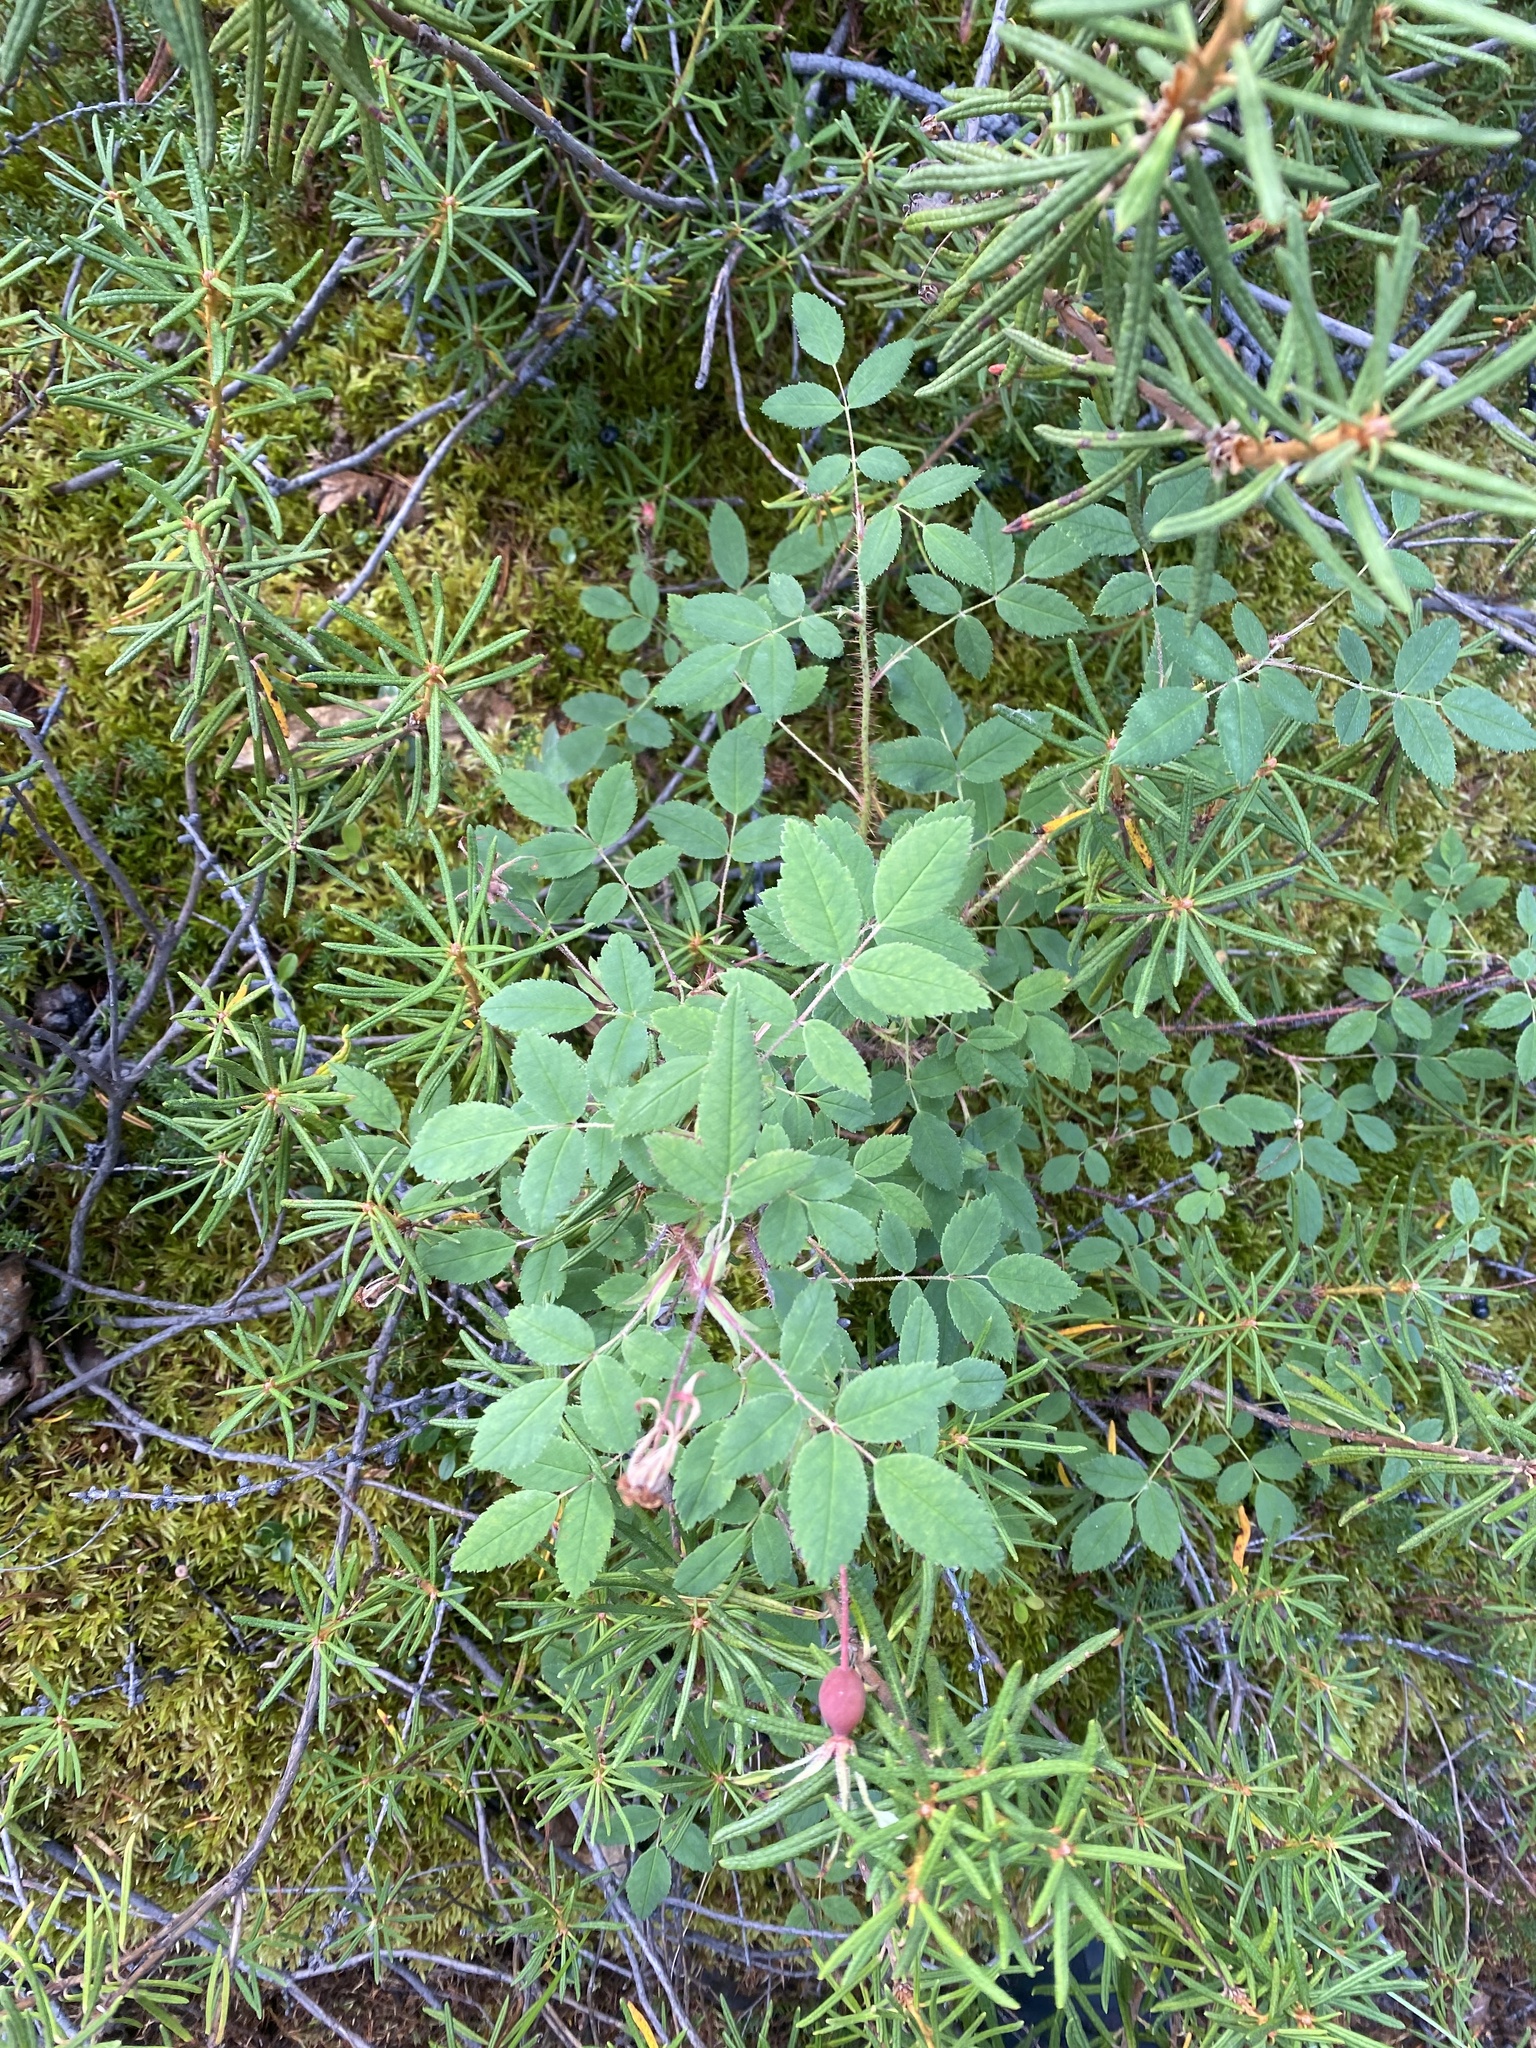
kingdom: Plantae
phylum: Tracheophyta
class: Magnoliopsida
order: Rosales
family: Rosaceae
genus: Rosa
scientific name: Rosa acicularis
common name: Prickly rose
